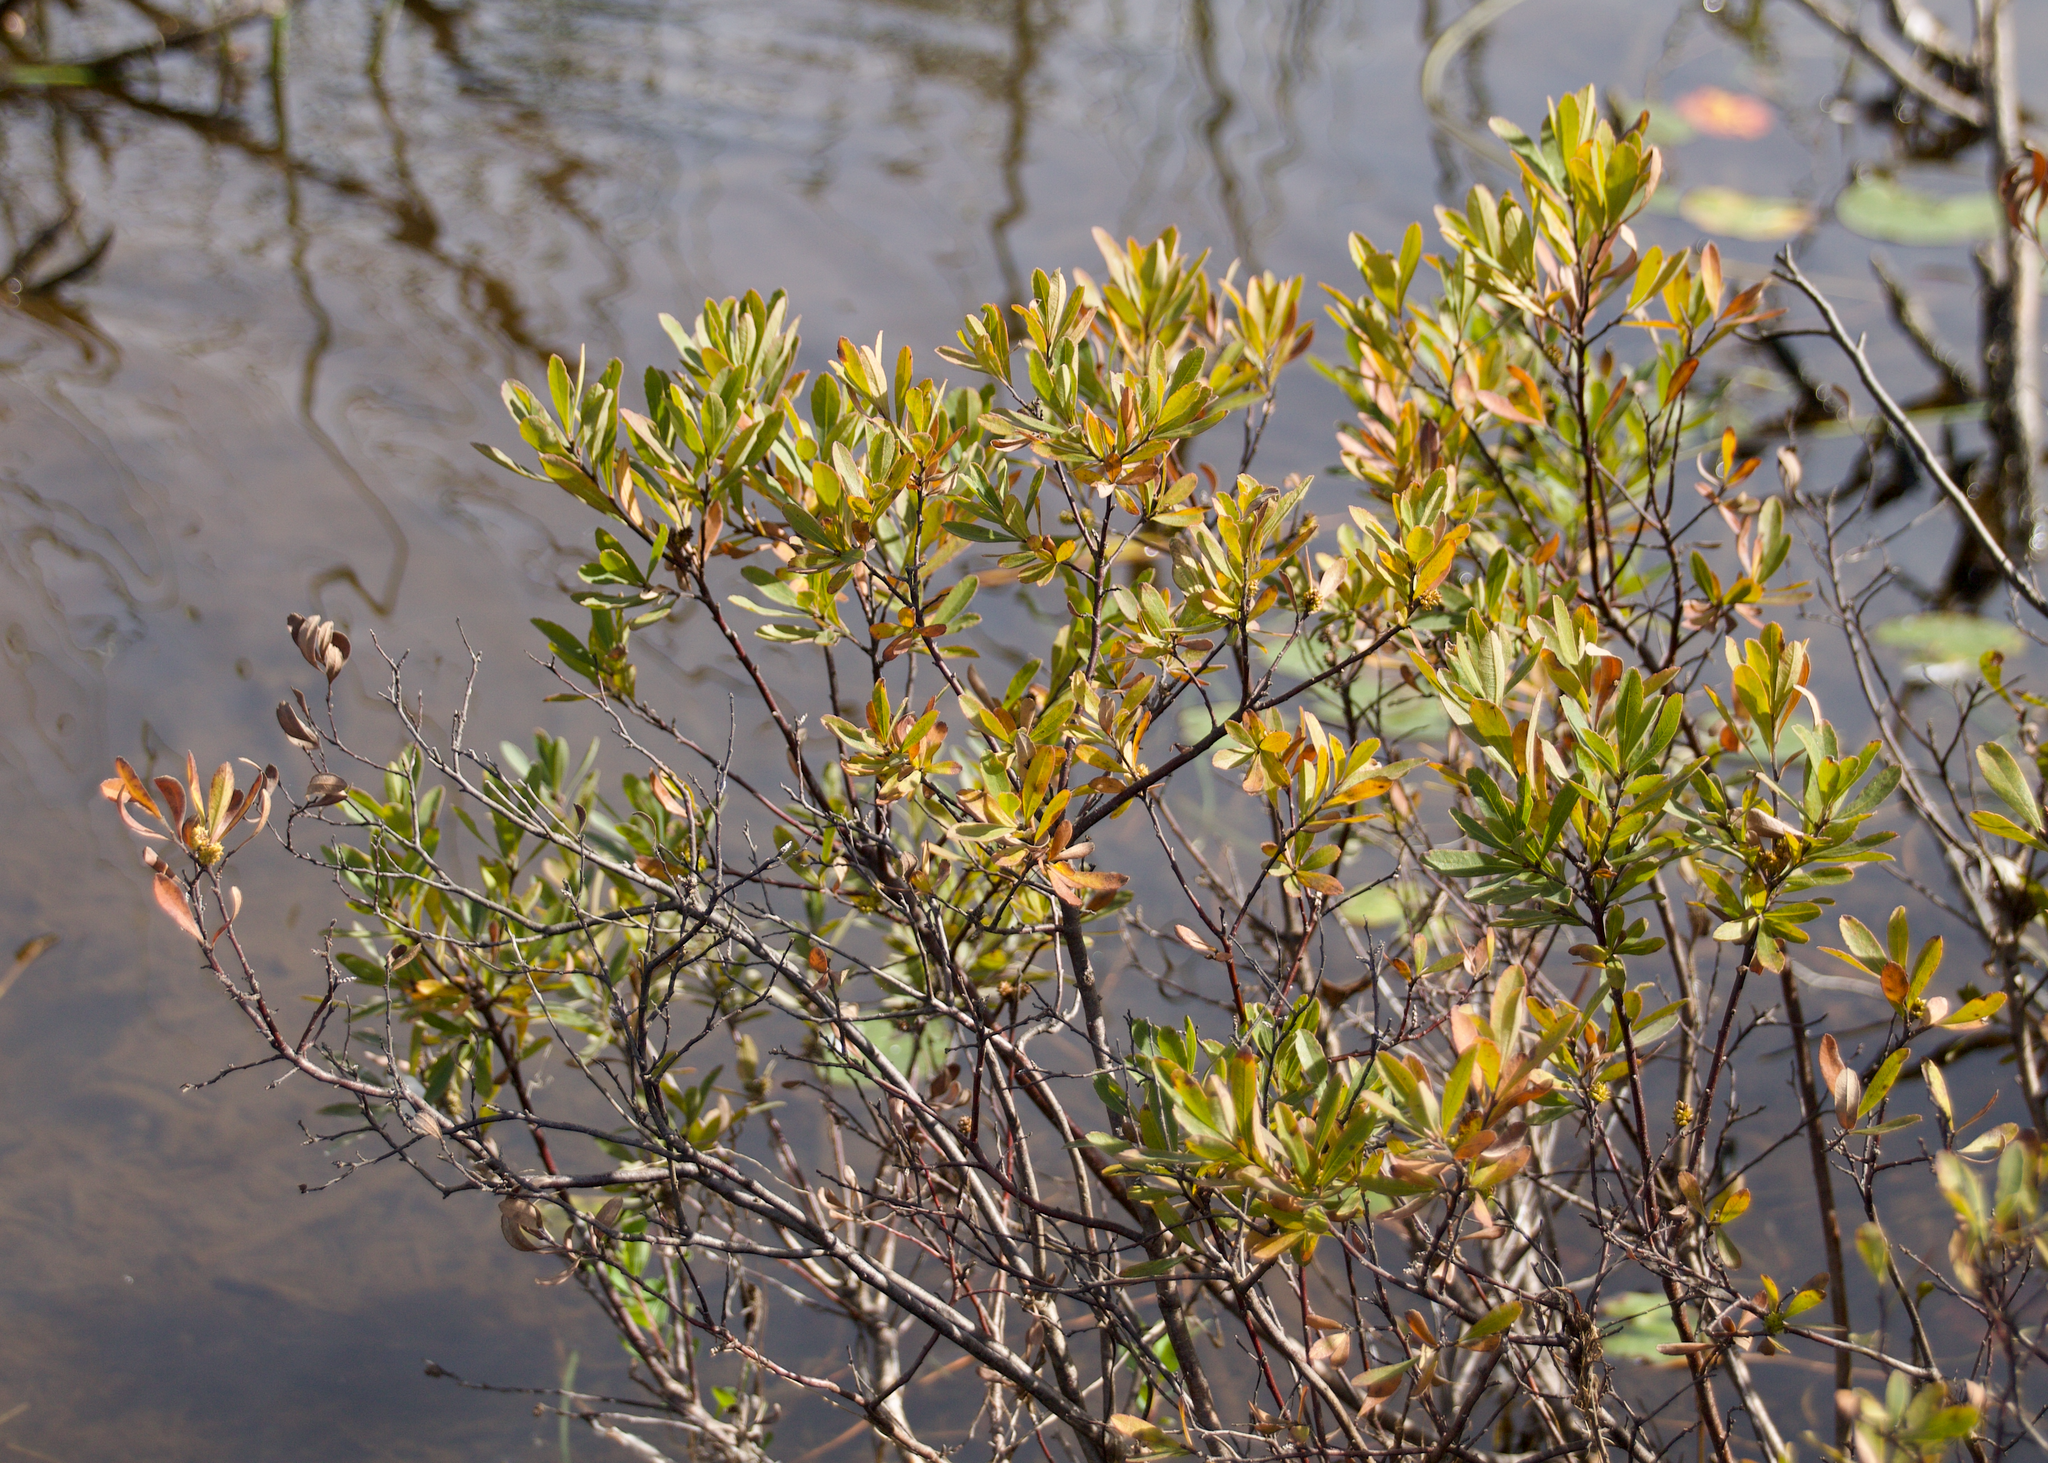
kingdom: Plantae
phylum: Tracheophyta
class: Magnoliopsida
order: Fagales
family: Myricaceae
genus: Myrica
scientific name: Myrica gale
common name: Sweet gale
